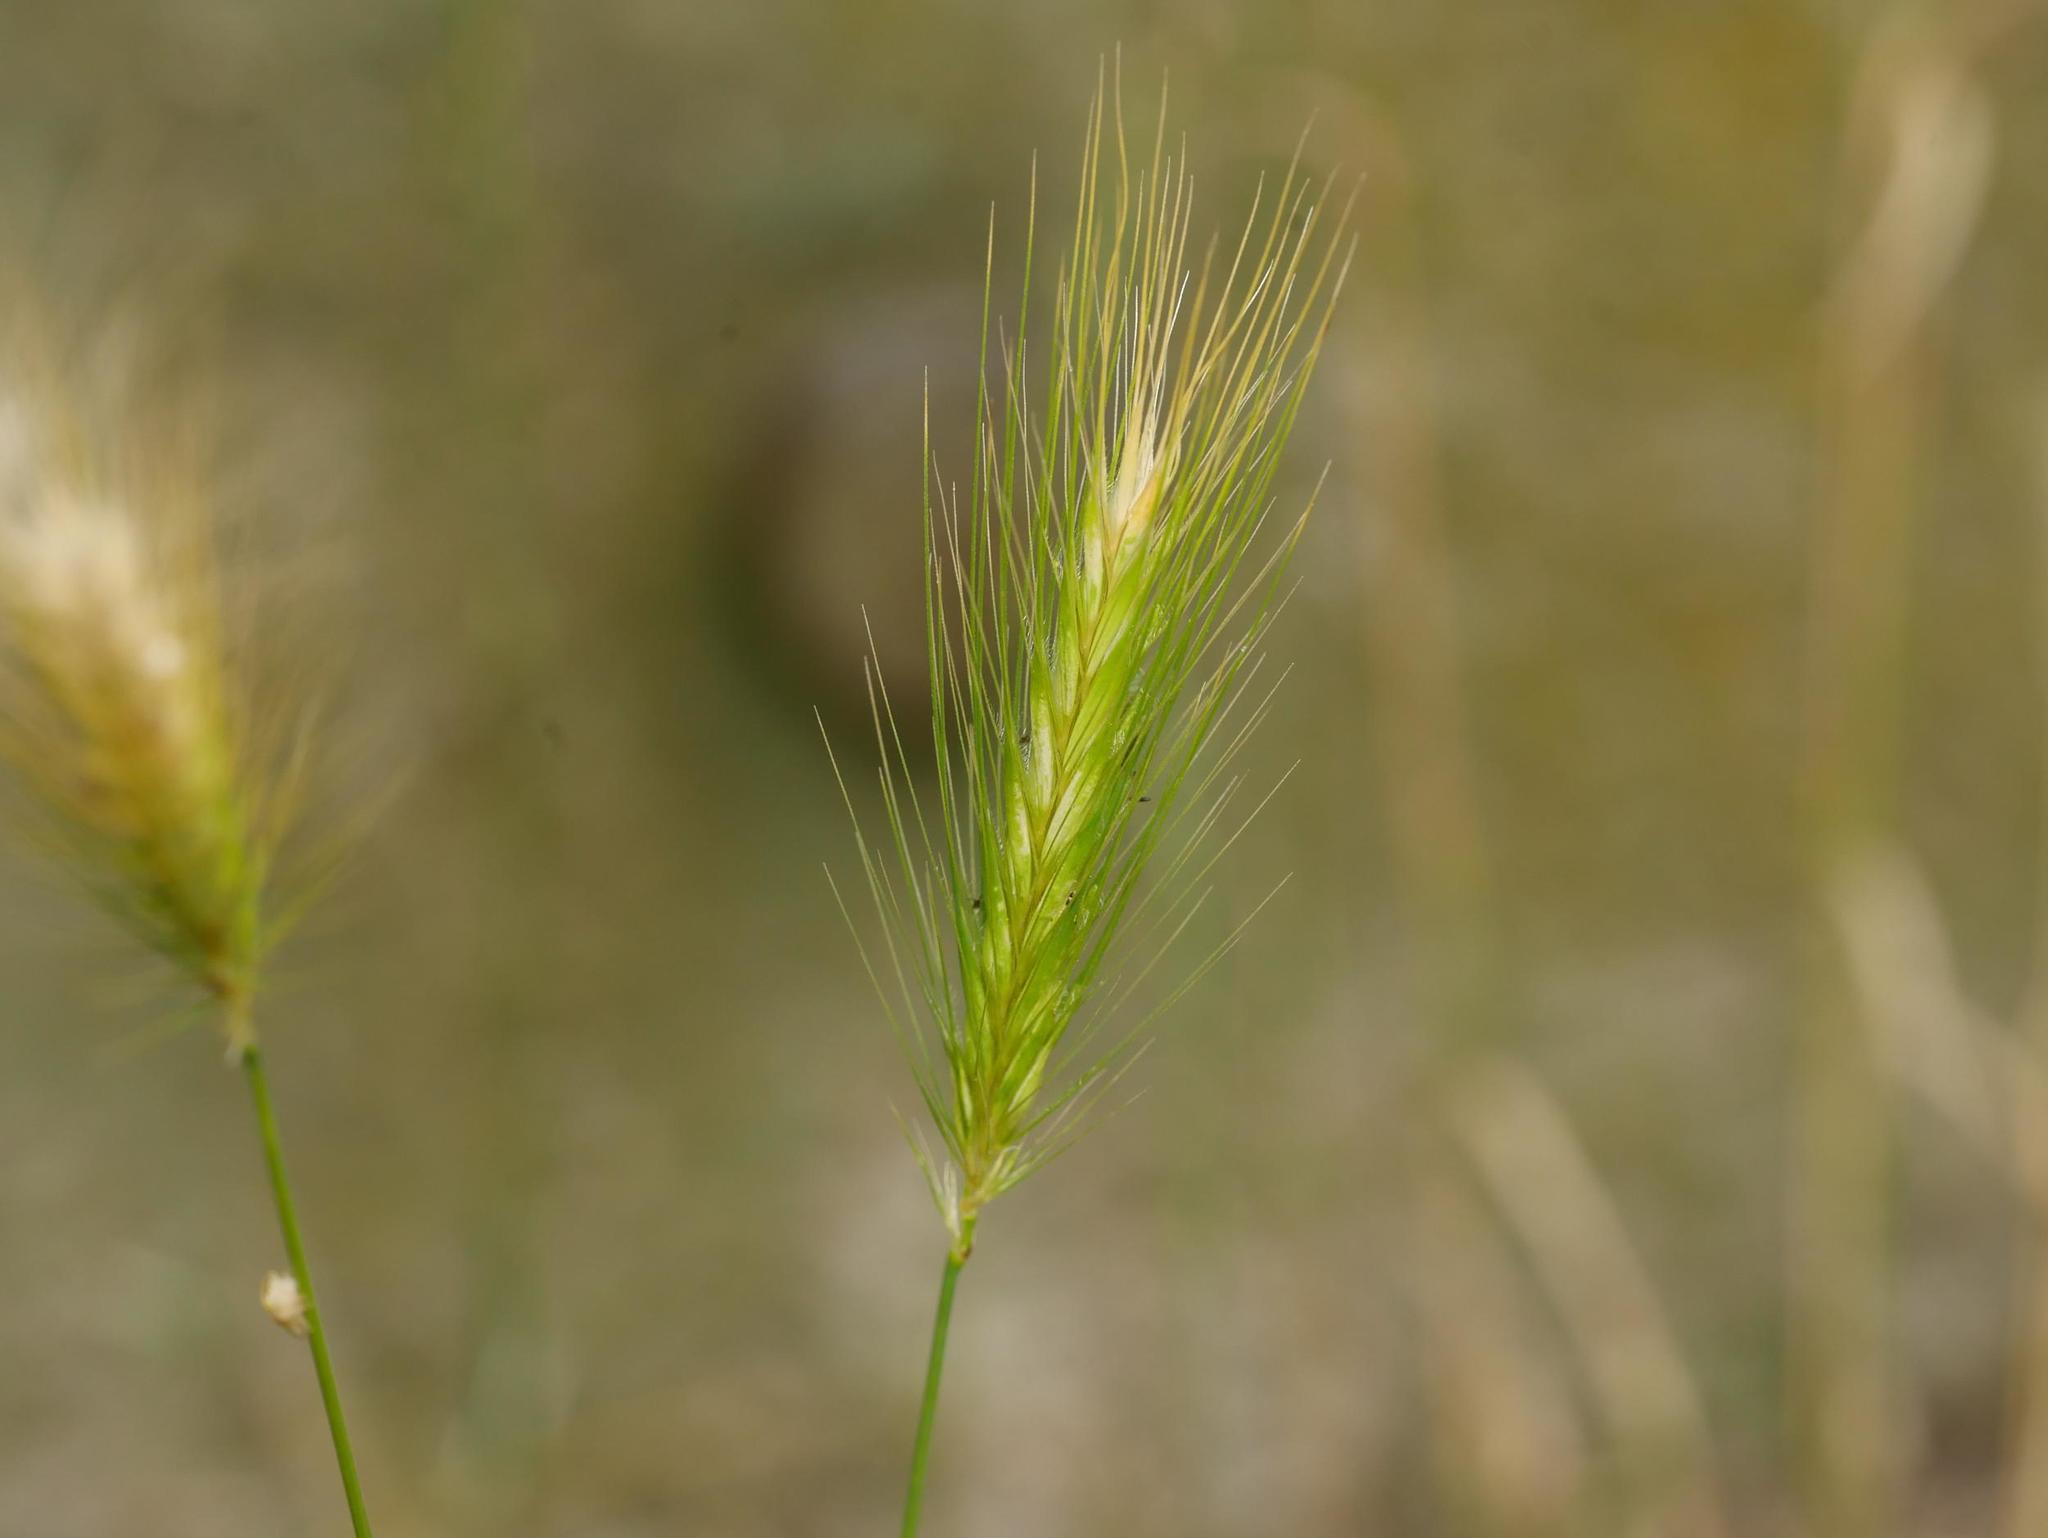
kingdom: Plantae
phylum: Tracheophyta
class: Liliopsida
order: Poales
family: Poaceae
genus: Hordeum
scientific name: Hordeum murinum
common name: Wall barley
